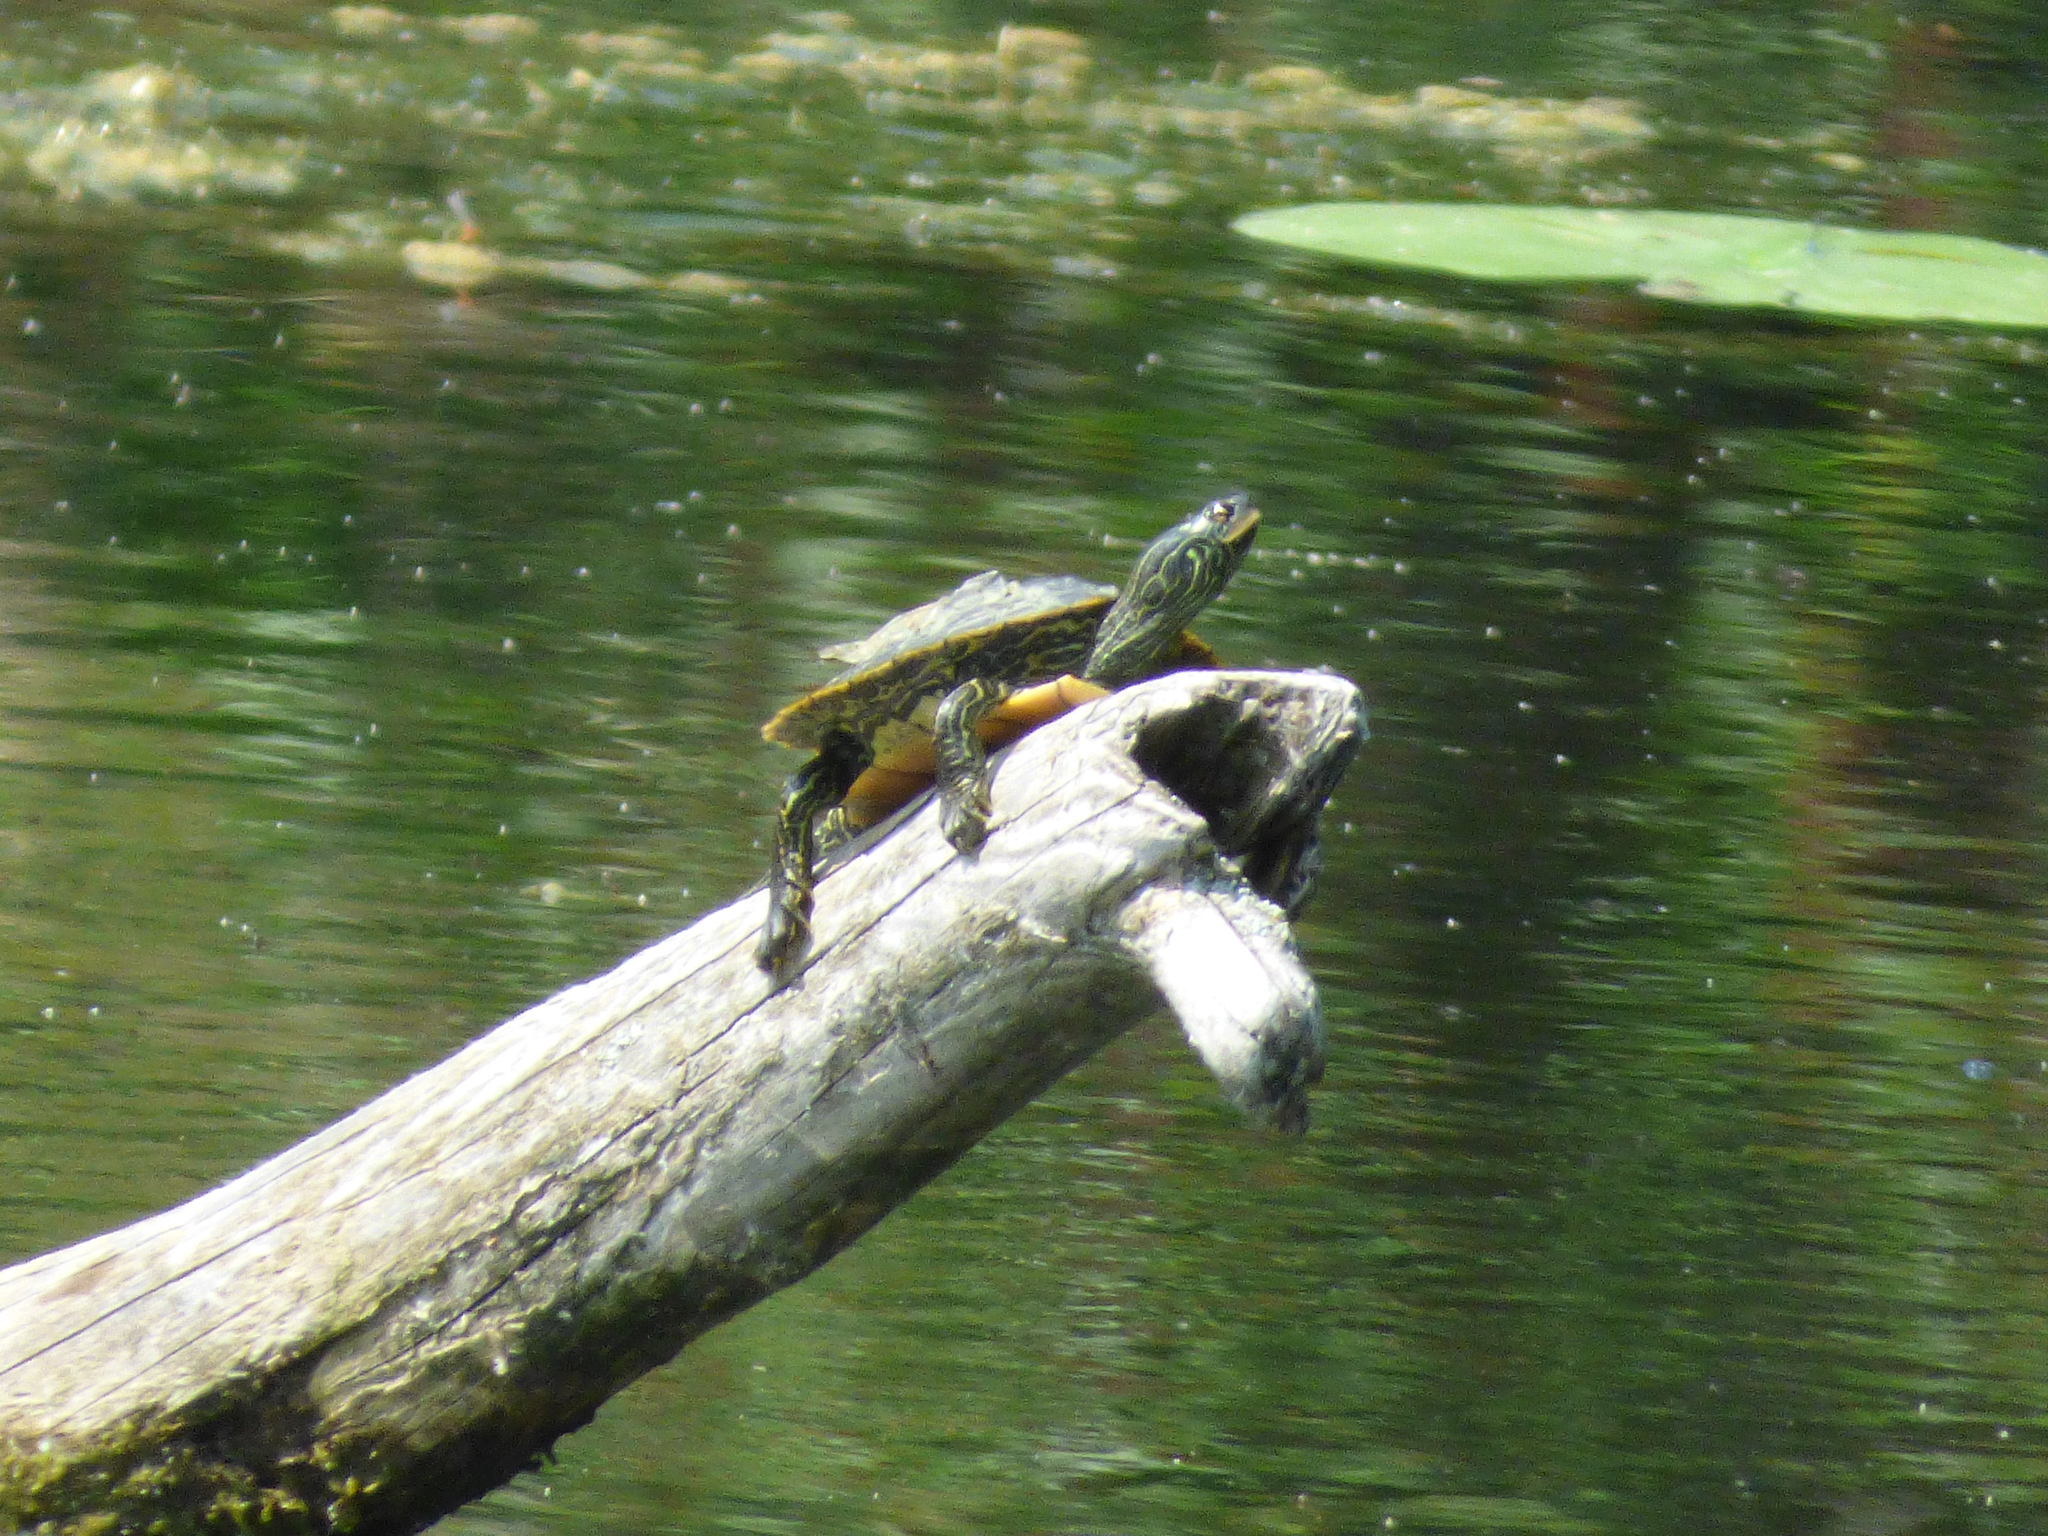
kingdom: Animalia
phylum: Chordata
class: Testudines
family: Emydidae
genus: Graptemys
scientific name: Graptemys geographica
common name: Common map turtle
